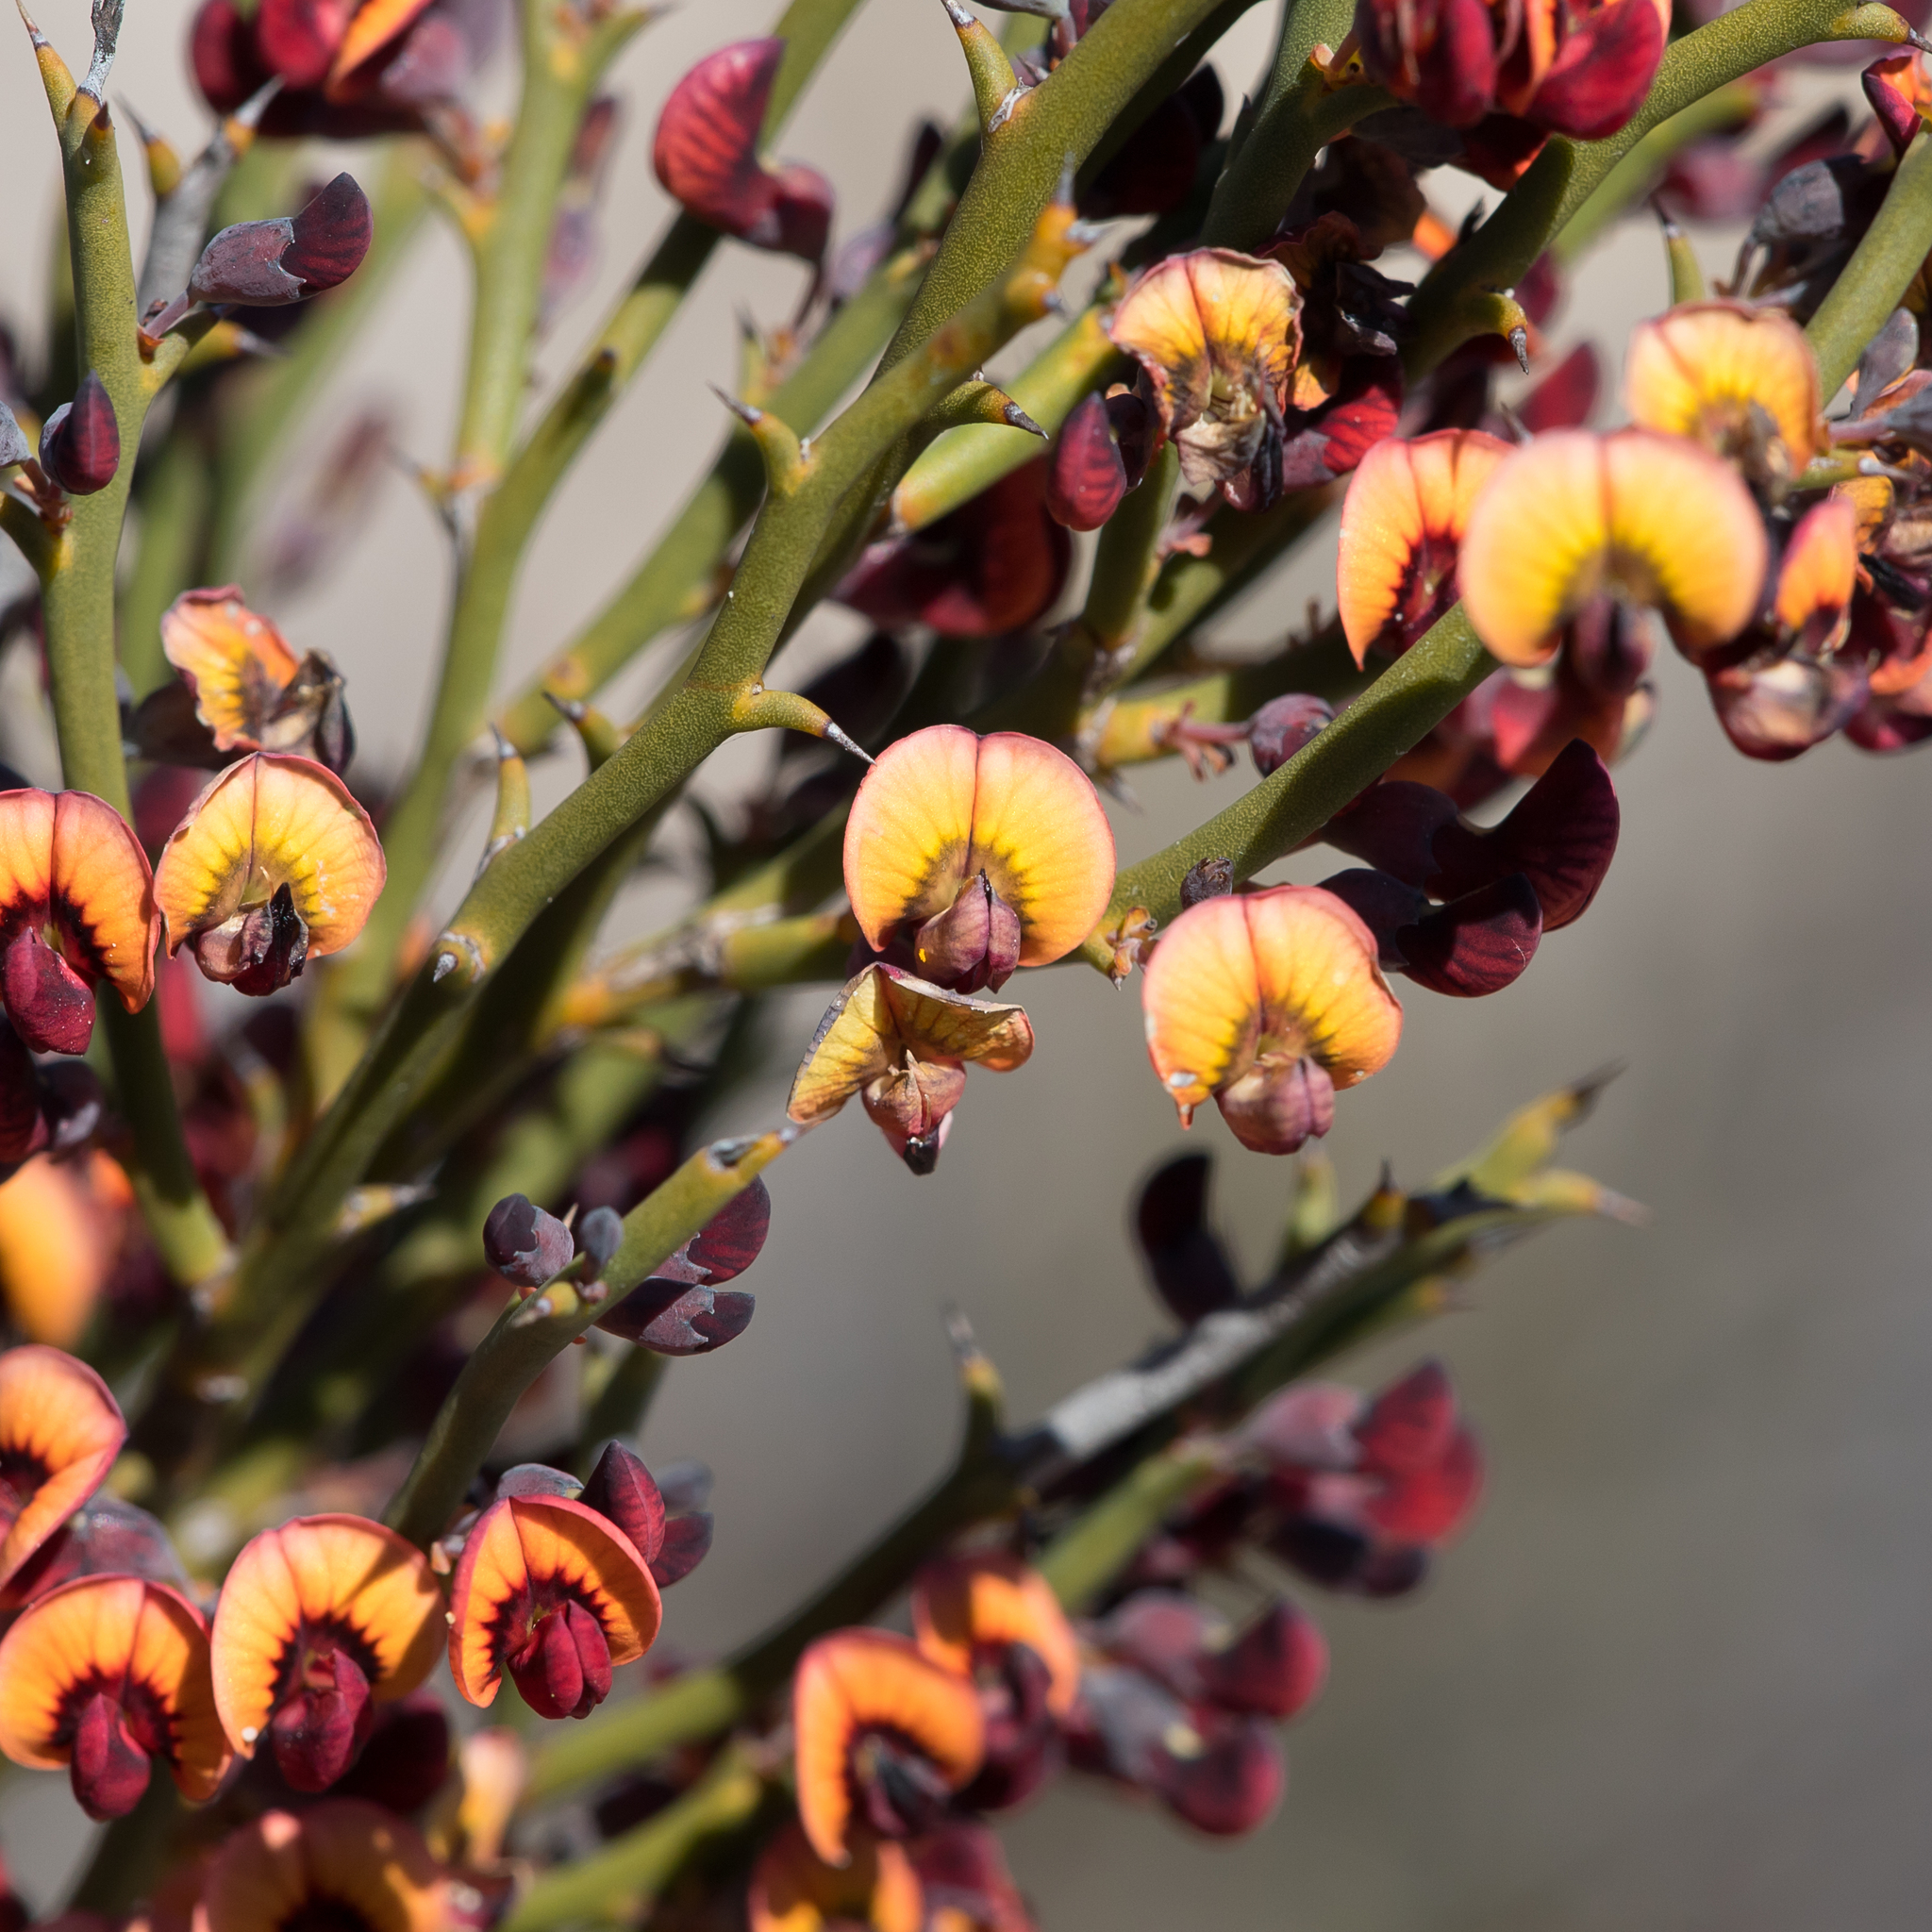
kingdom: Plantae
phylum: Tracheophyta
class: Magnoliopsida
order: Fabales
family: Fabaceae
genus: Daviesia
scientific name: Daviesia brevifolia
